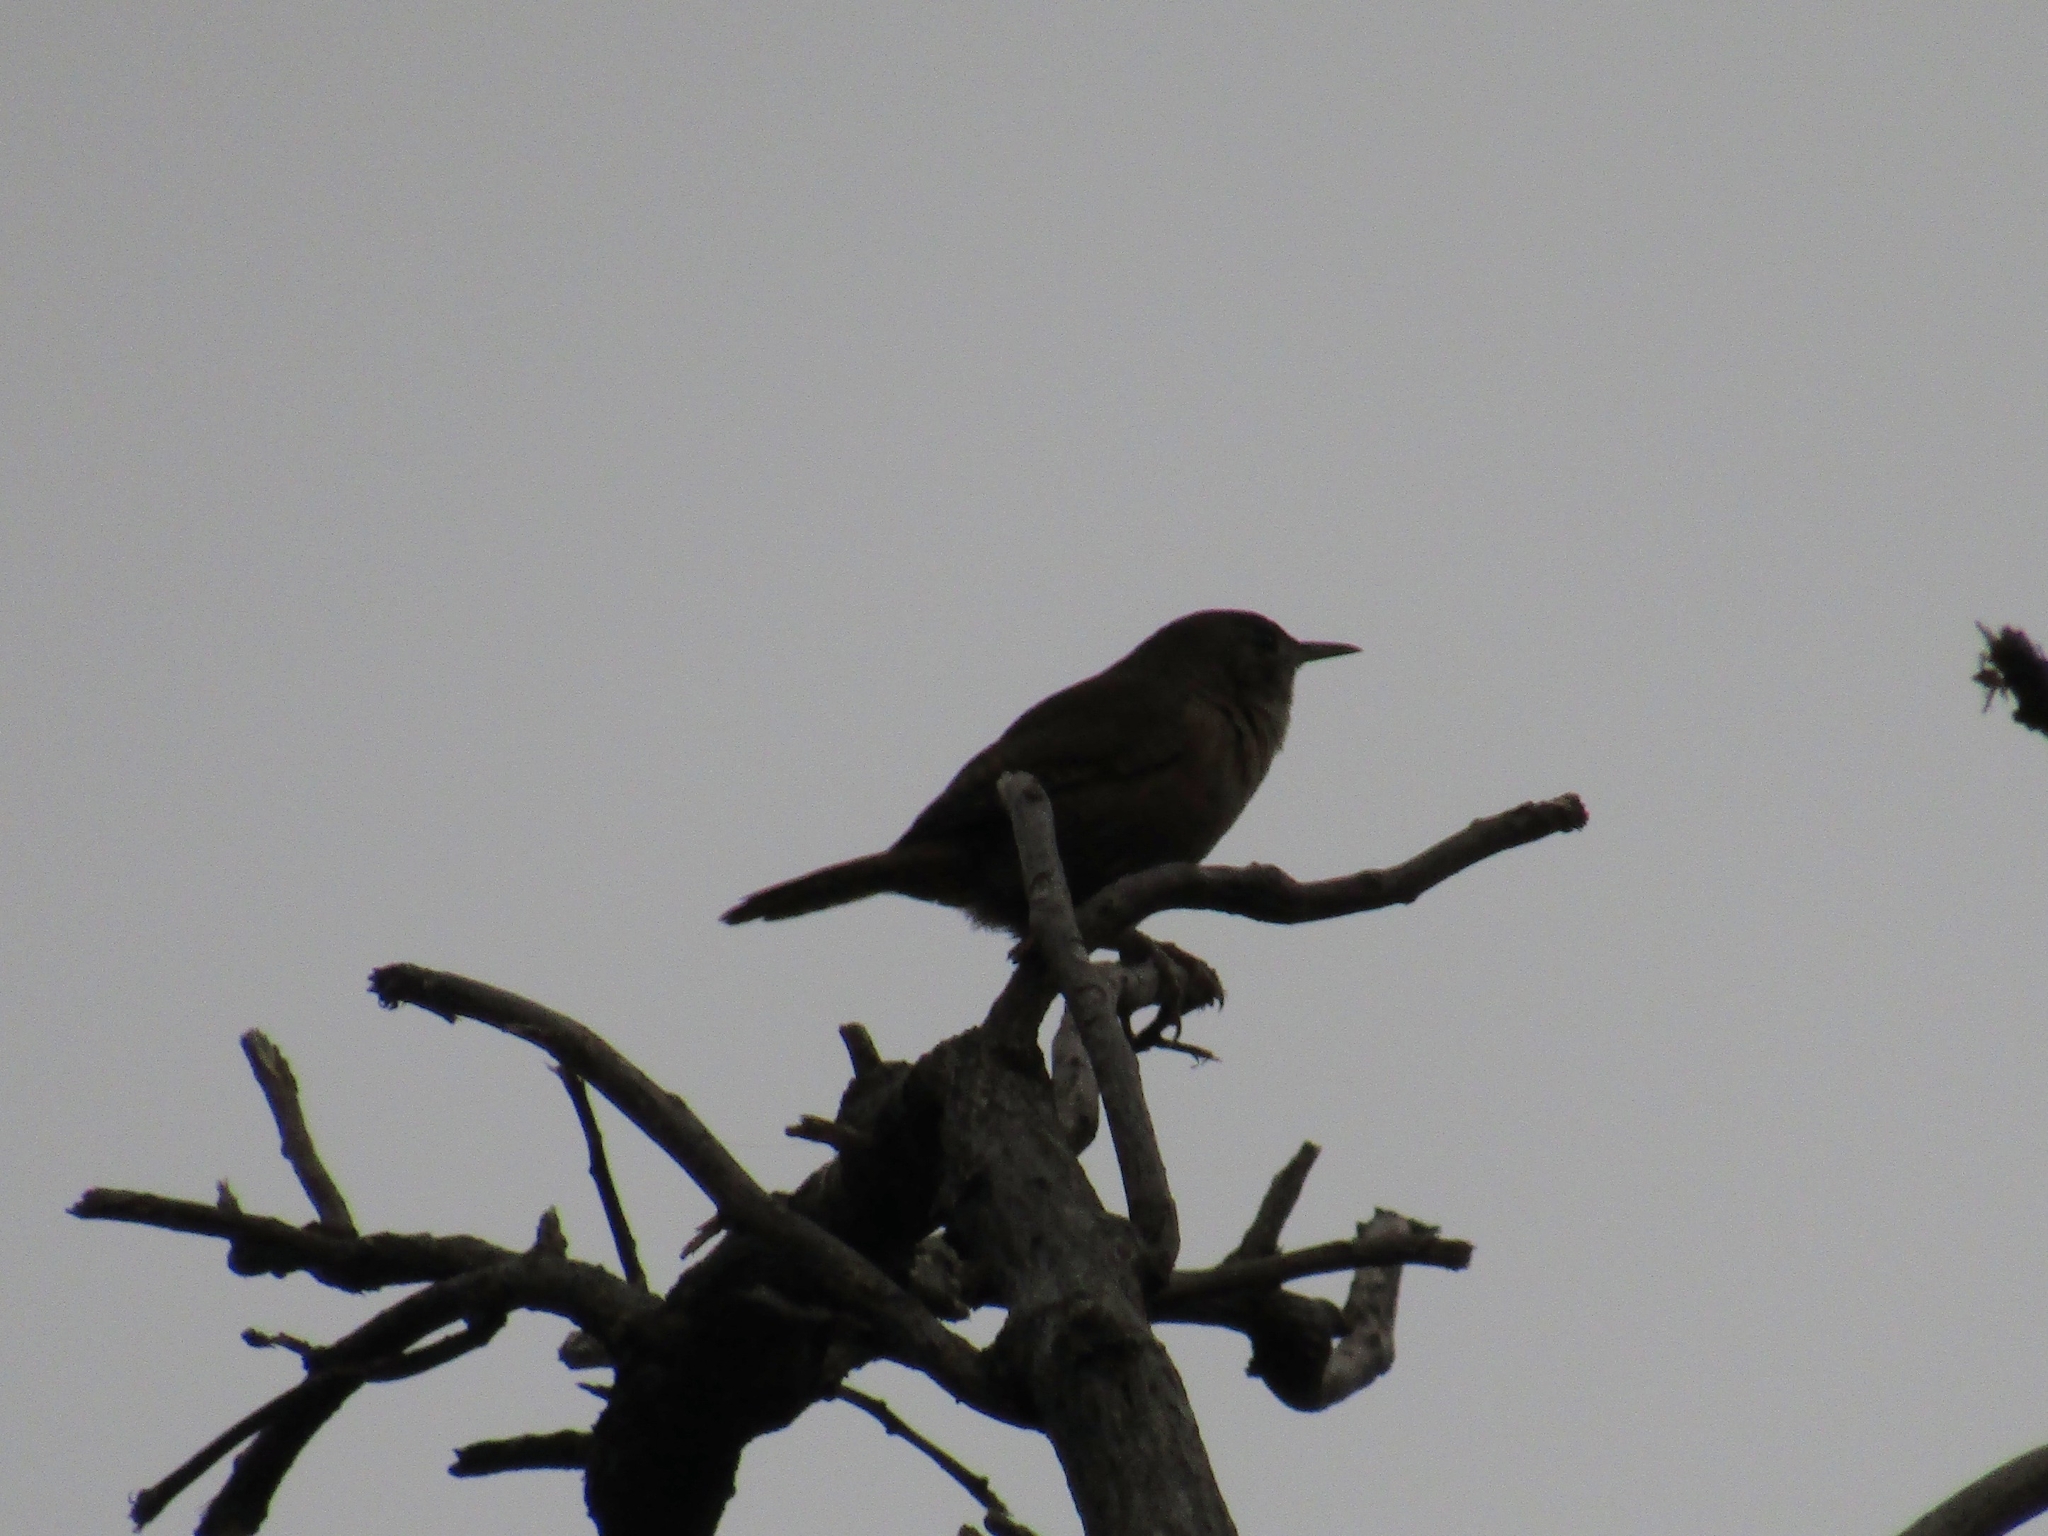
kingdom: Animalia
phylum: Chordata
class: Aves
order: Passeriformes
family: Troglodytidae
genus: Troglodytes
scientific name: Troglodytes aedon
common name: House wren
